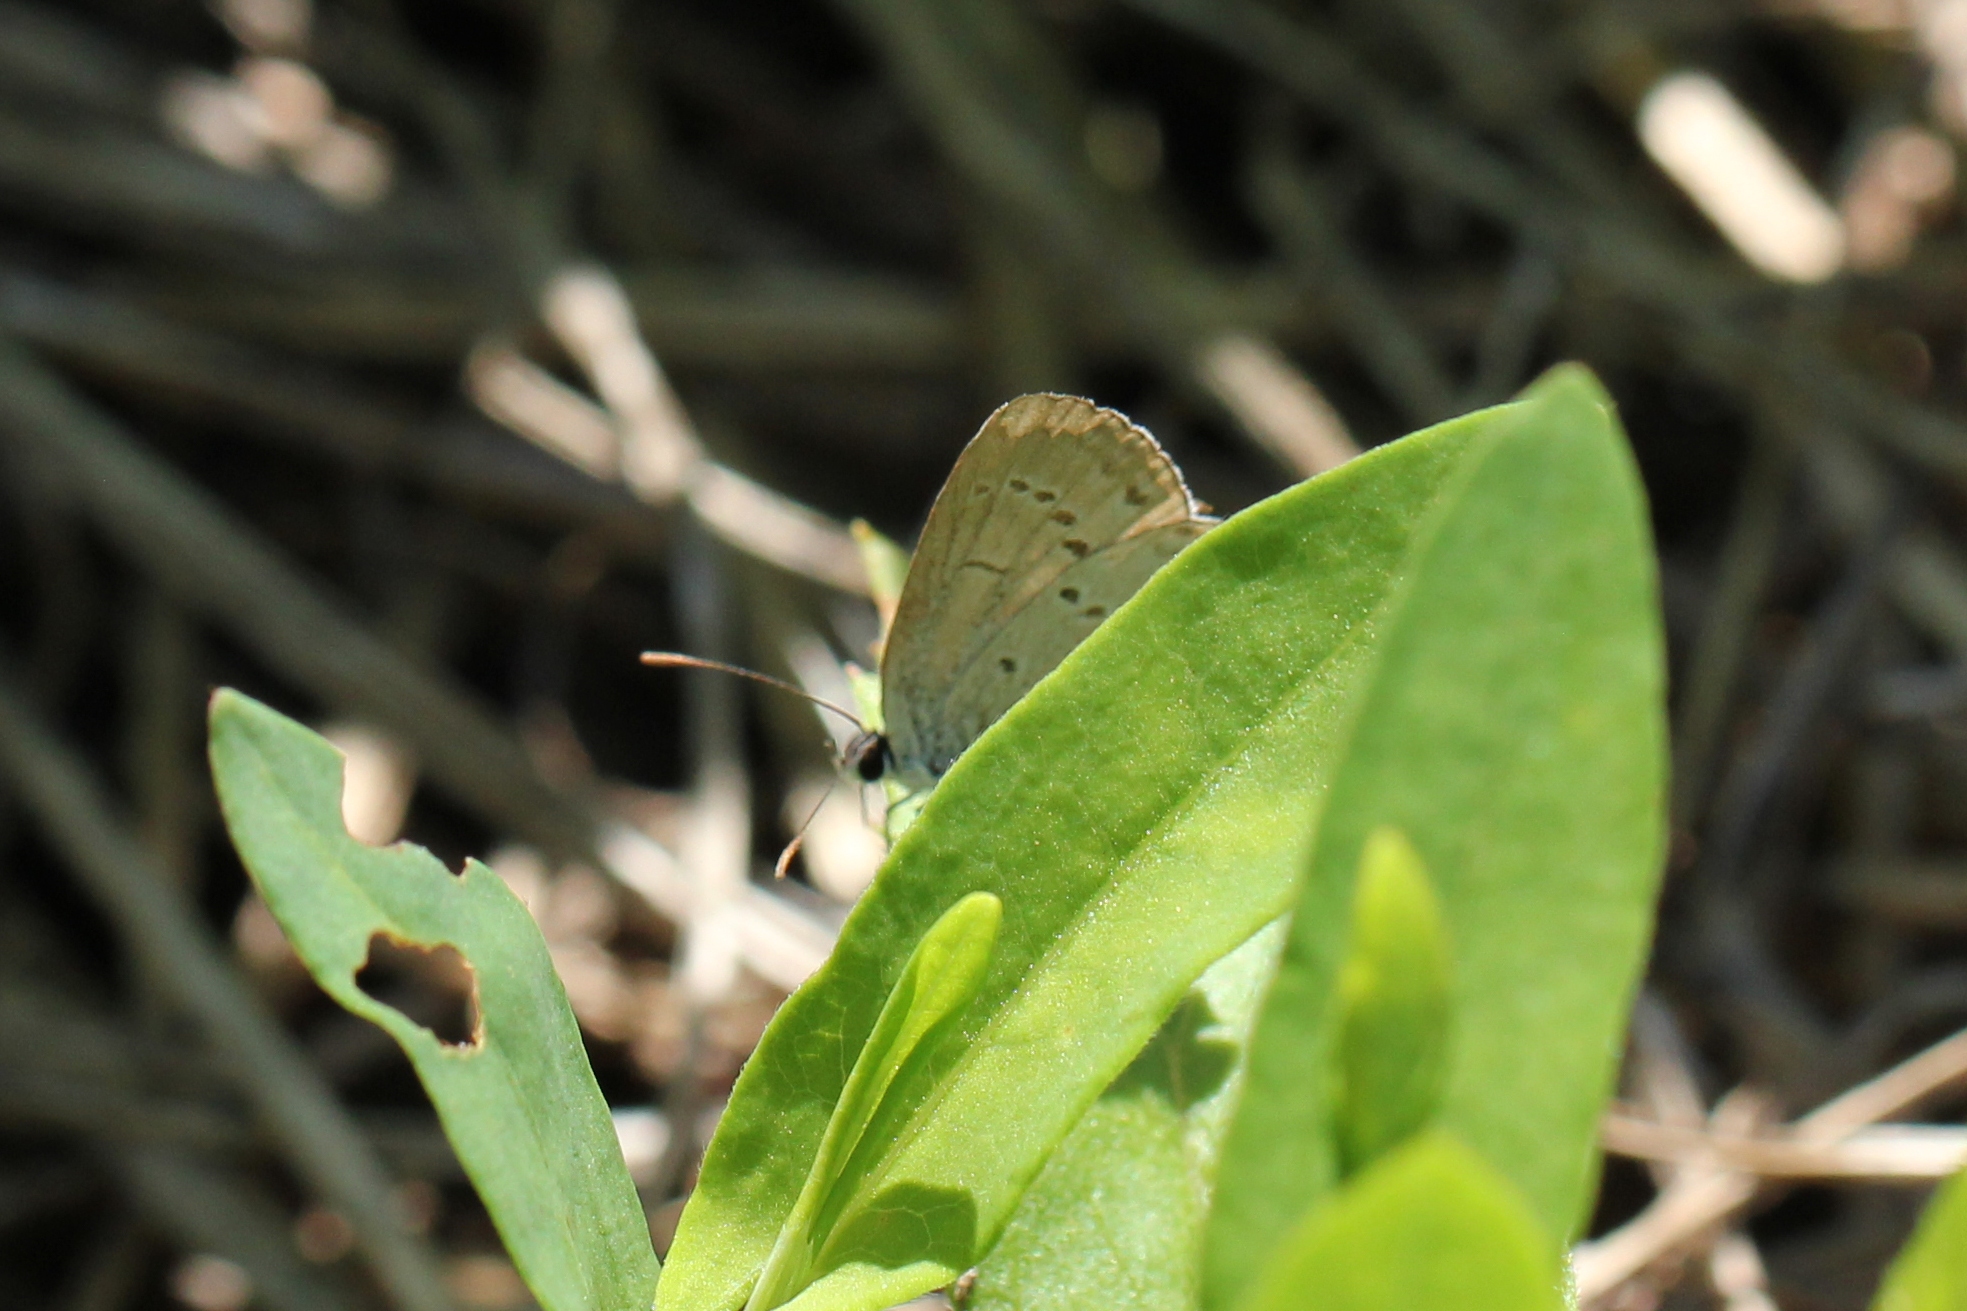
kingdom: Animalia
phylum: Arthropoda
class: Insecta
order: Lepidoptera
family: Lycaenidae
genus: Cyaniris
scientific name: Cyaniris neglecta
